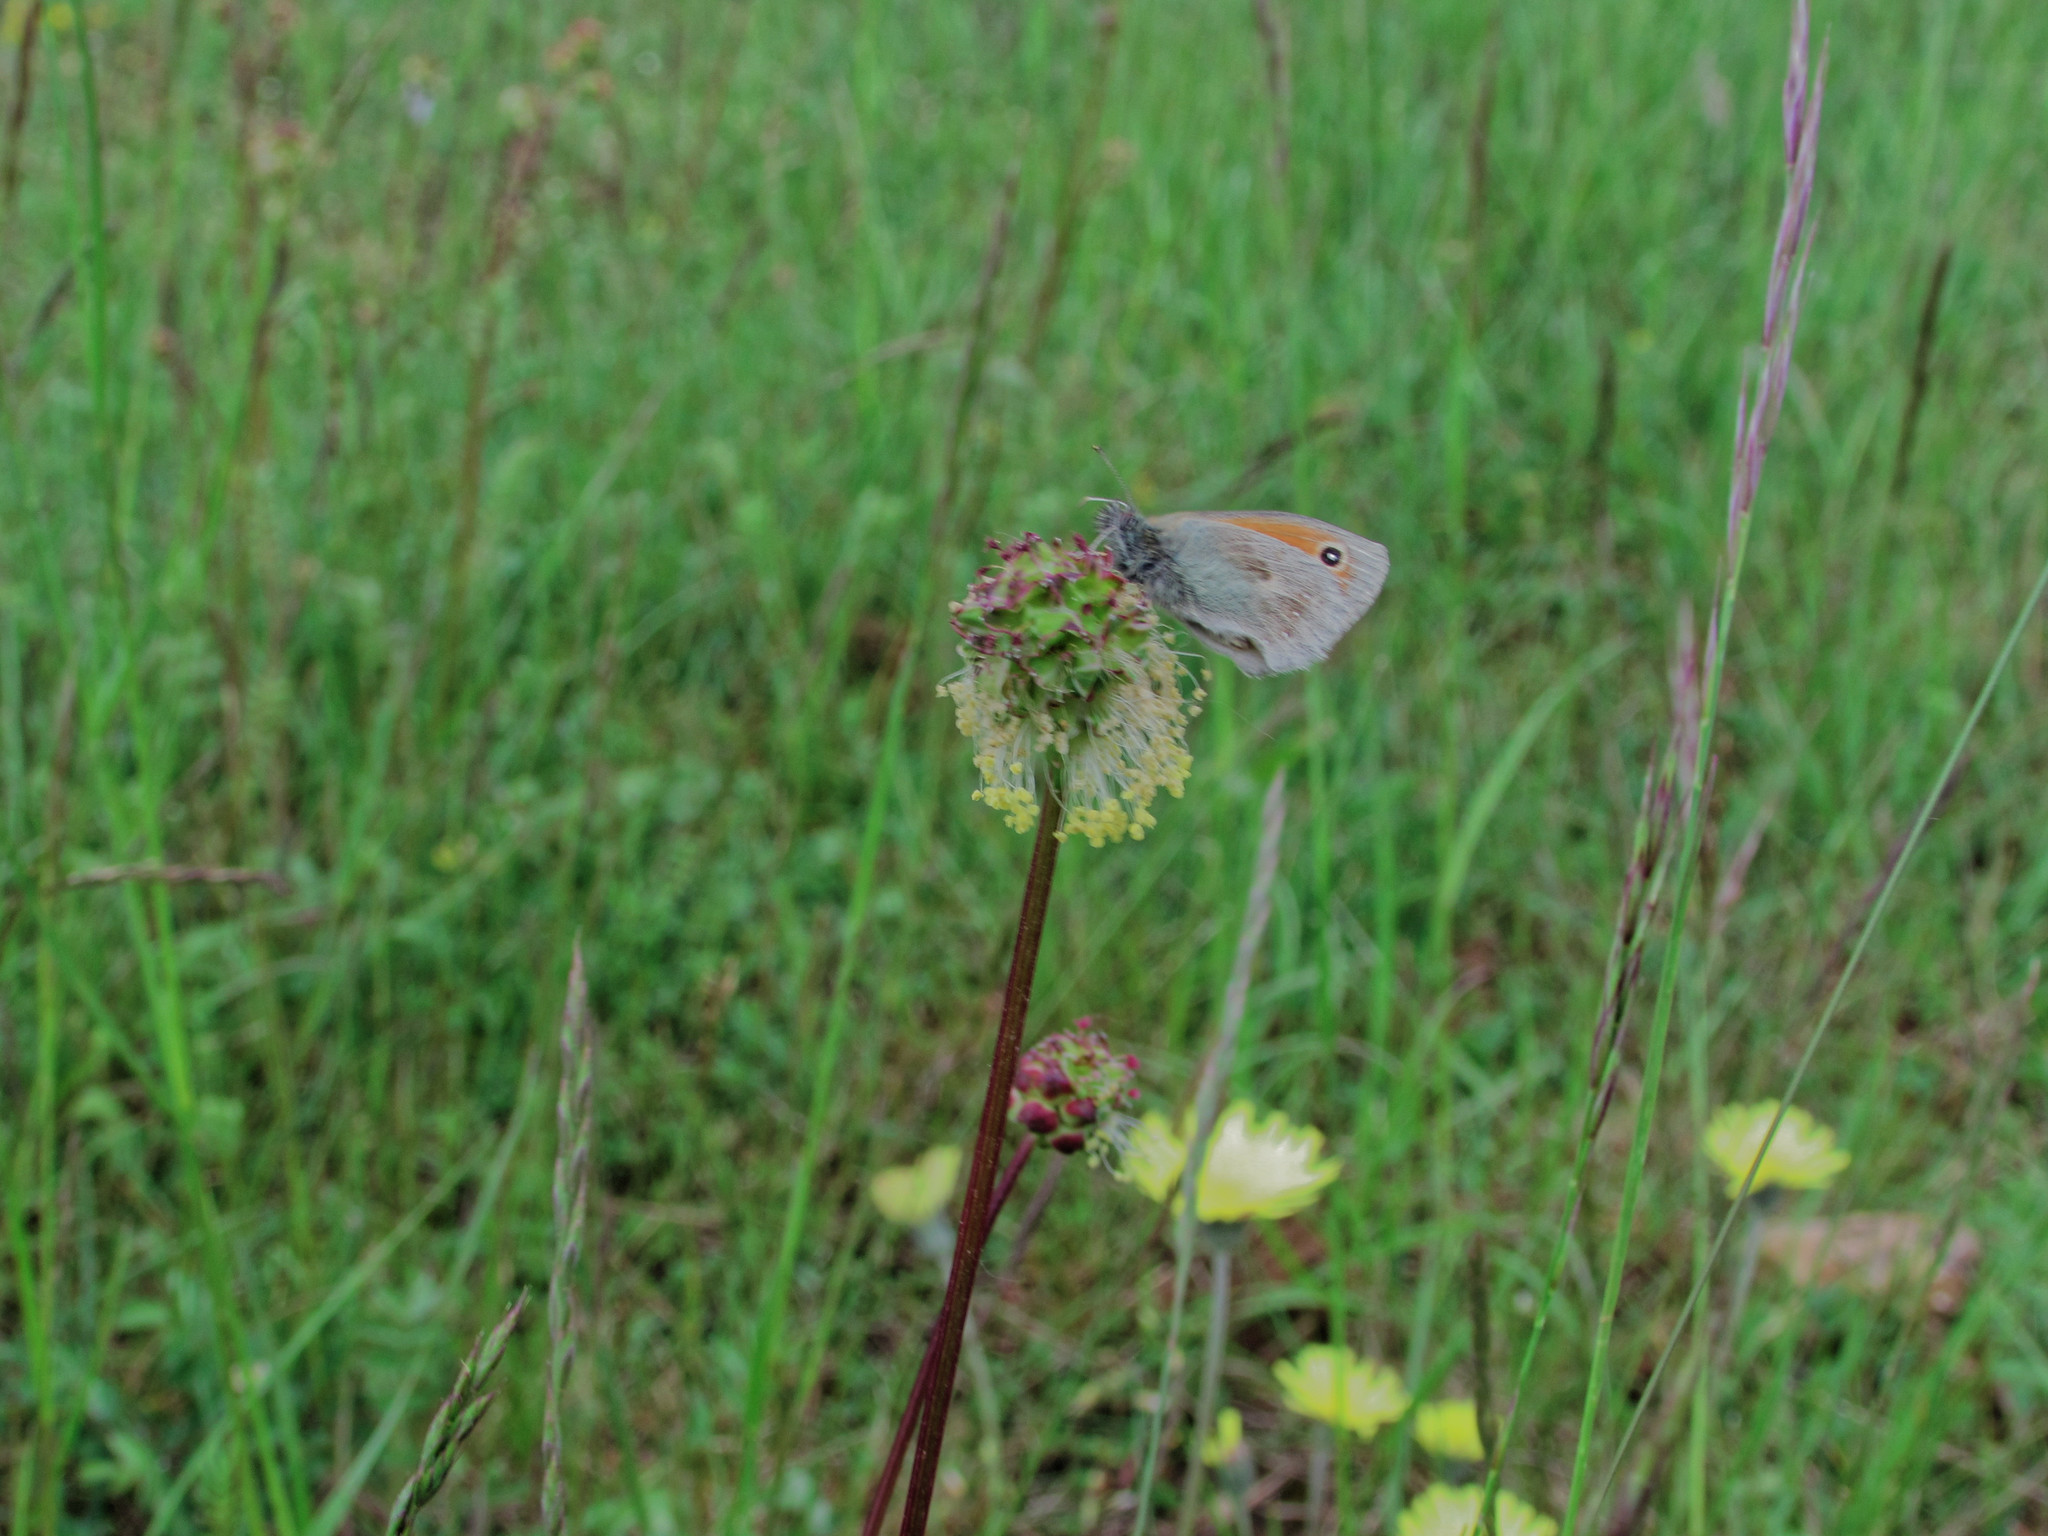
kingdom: Animalia
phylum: Arthropoda
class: Insecta
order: Lepidoptera
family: Nymphalidae
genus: Coenonympha
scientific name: Coenonympha pamphilus
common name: Small heath
